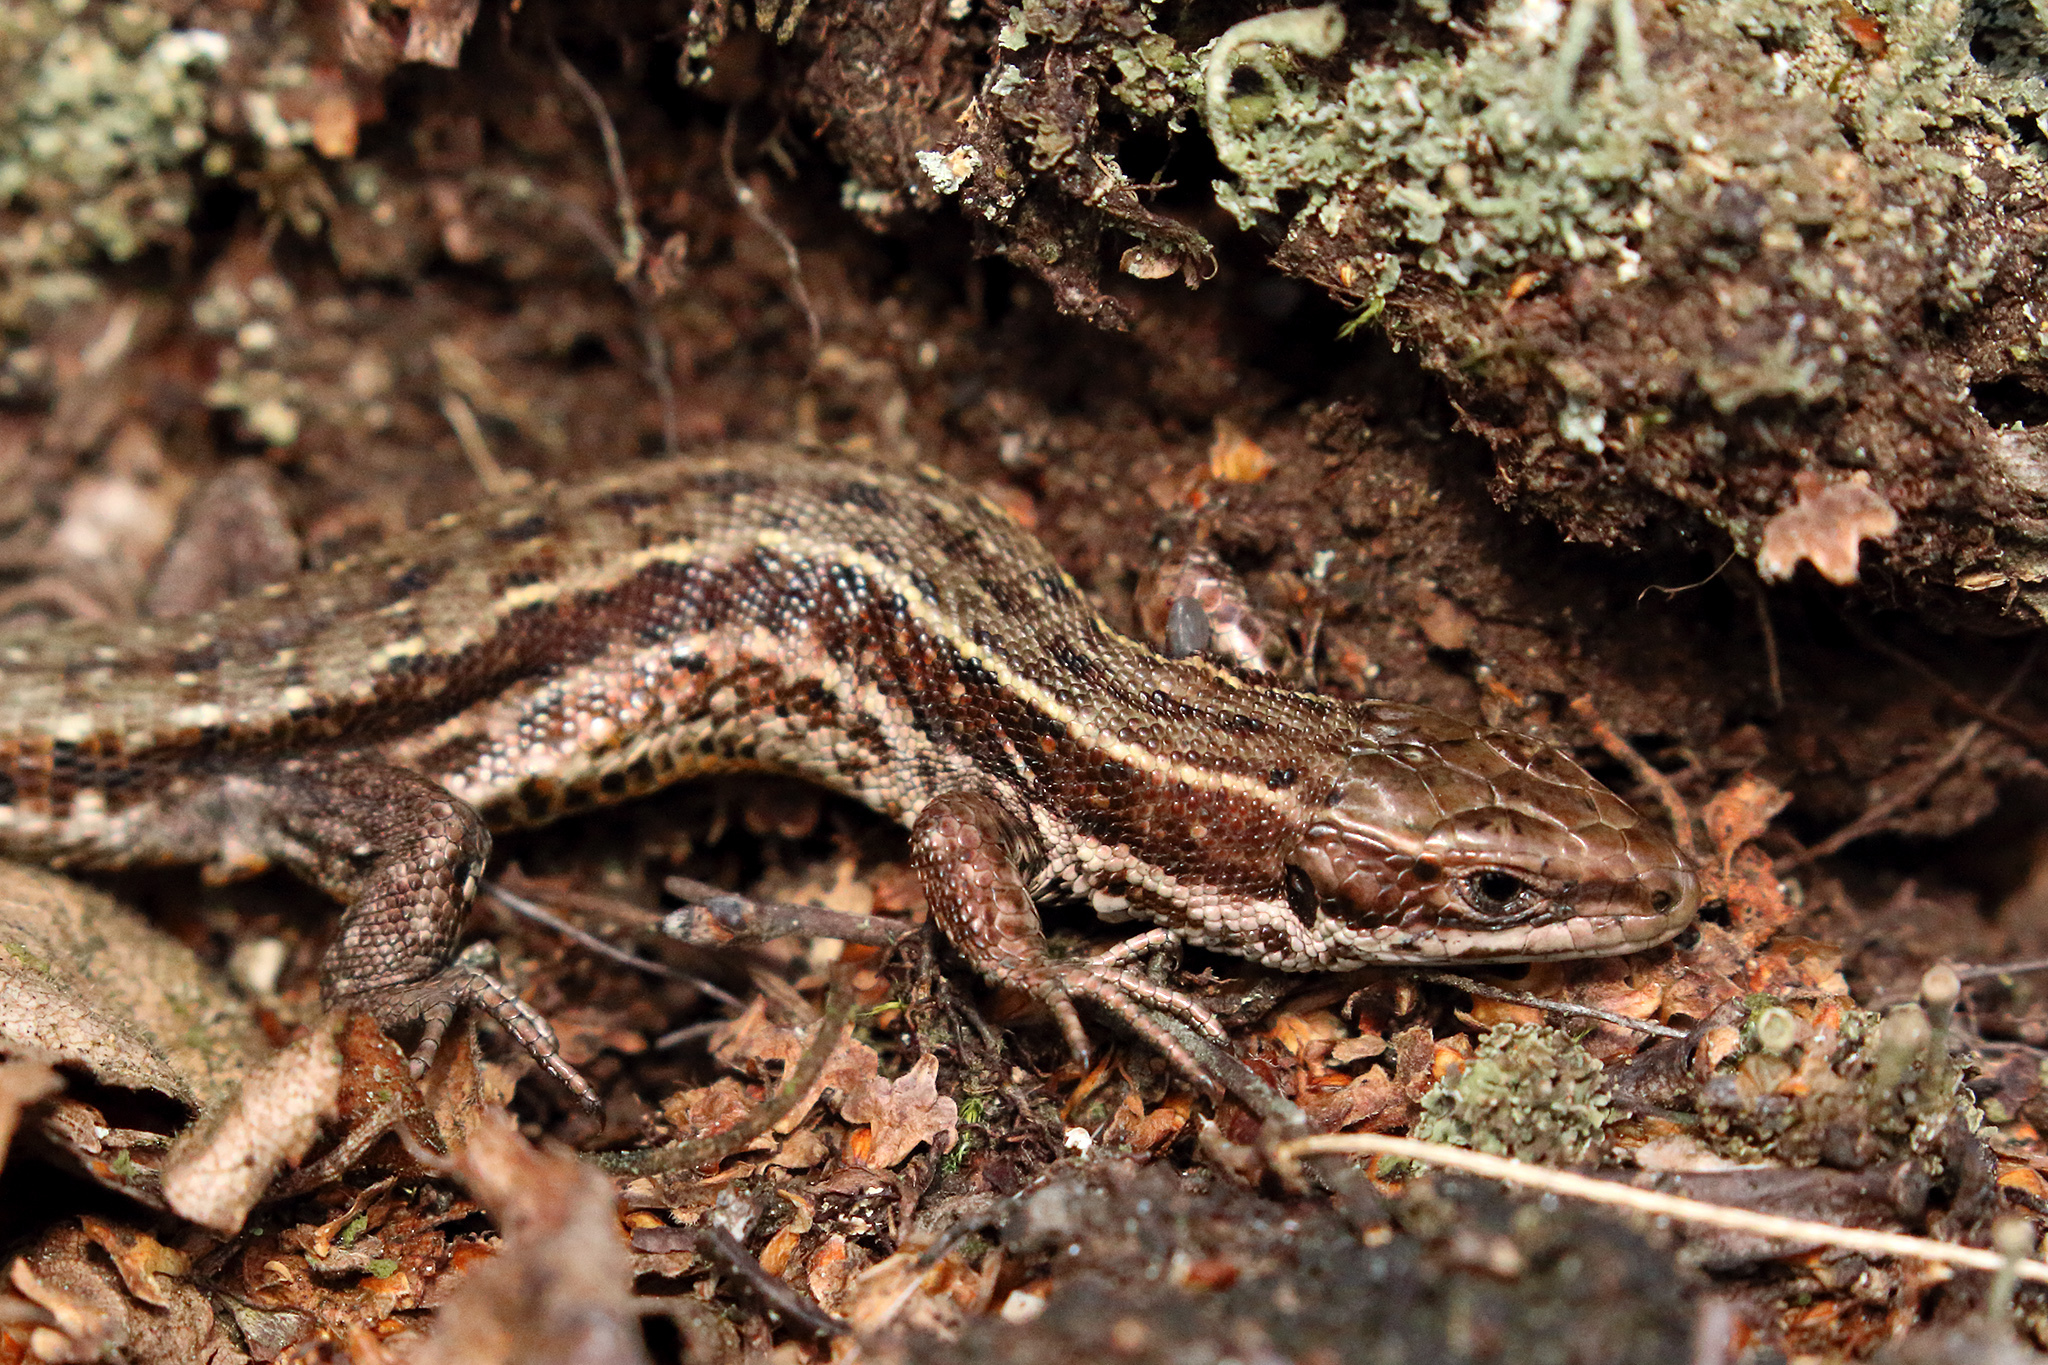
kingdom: Animalia
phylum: Chordata
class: Squamata
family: Lacertidae
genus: Zootoca
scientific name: Zootoca vivipara
